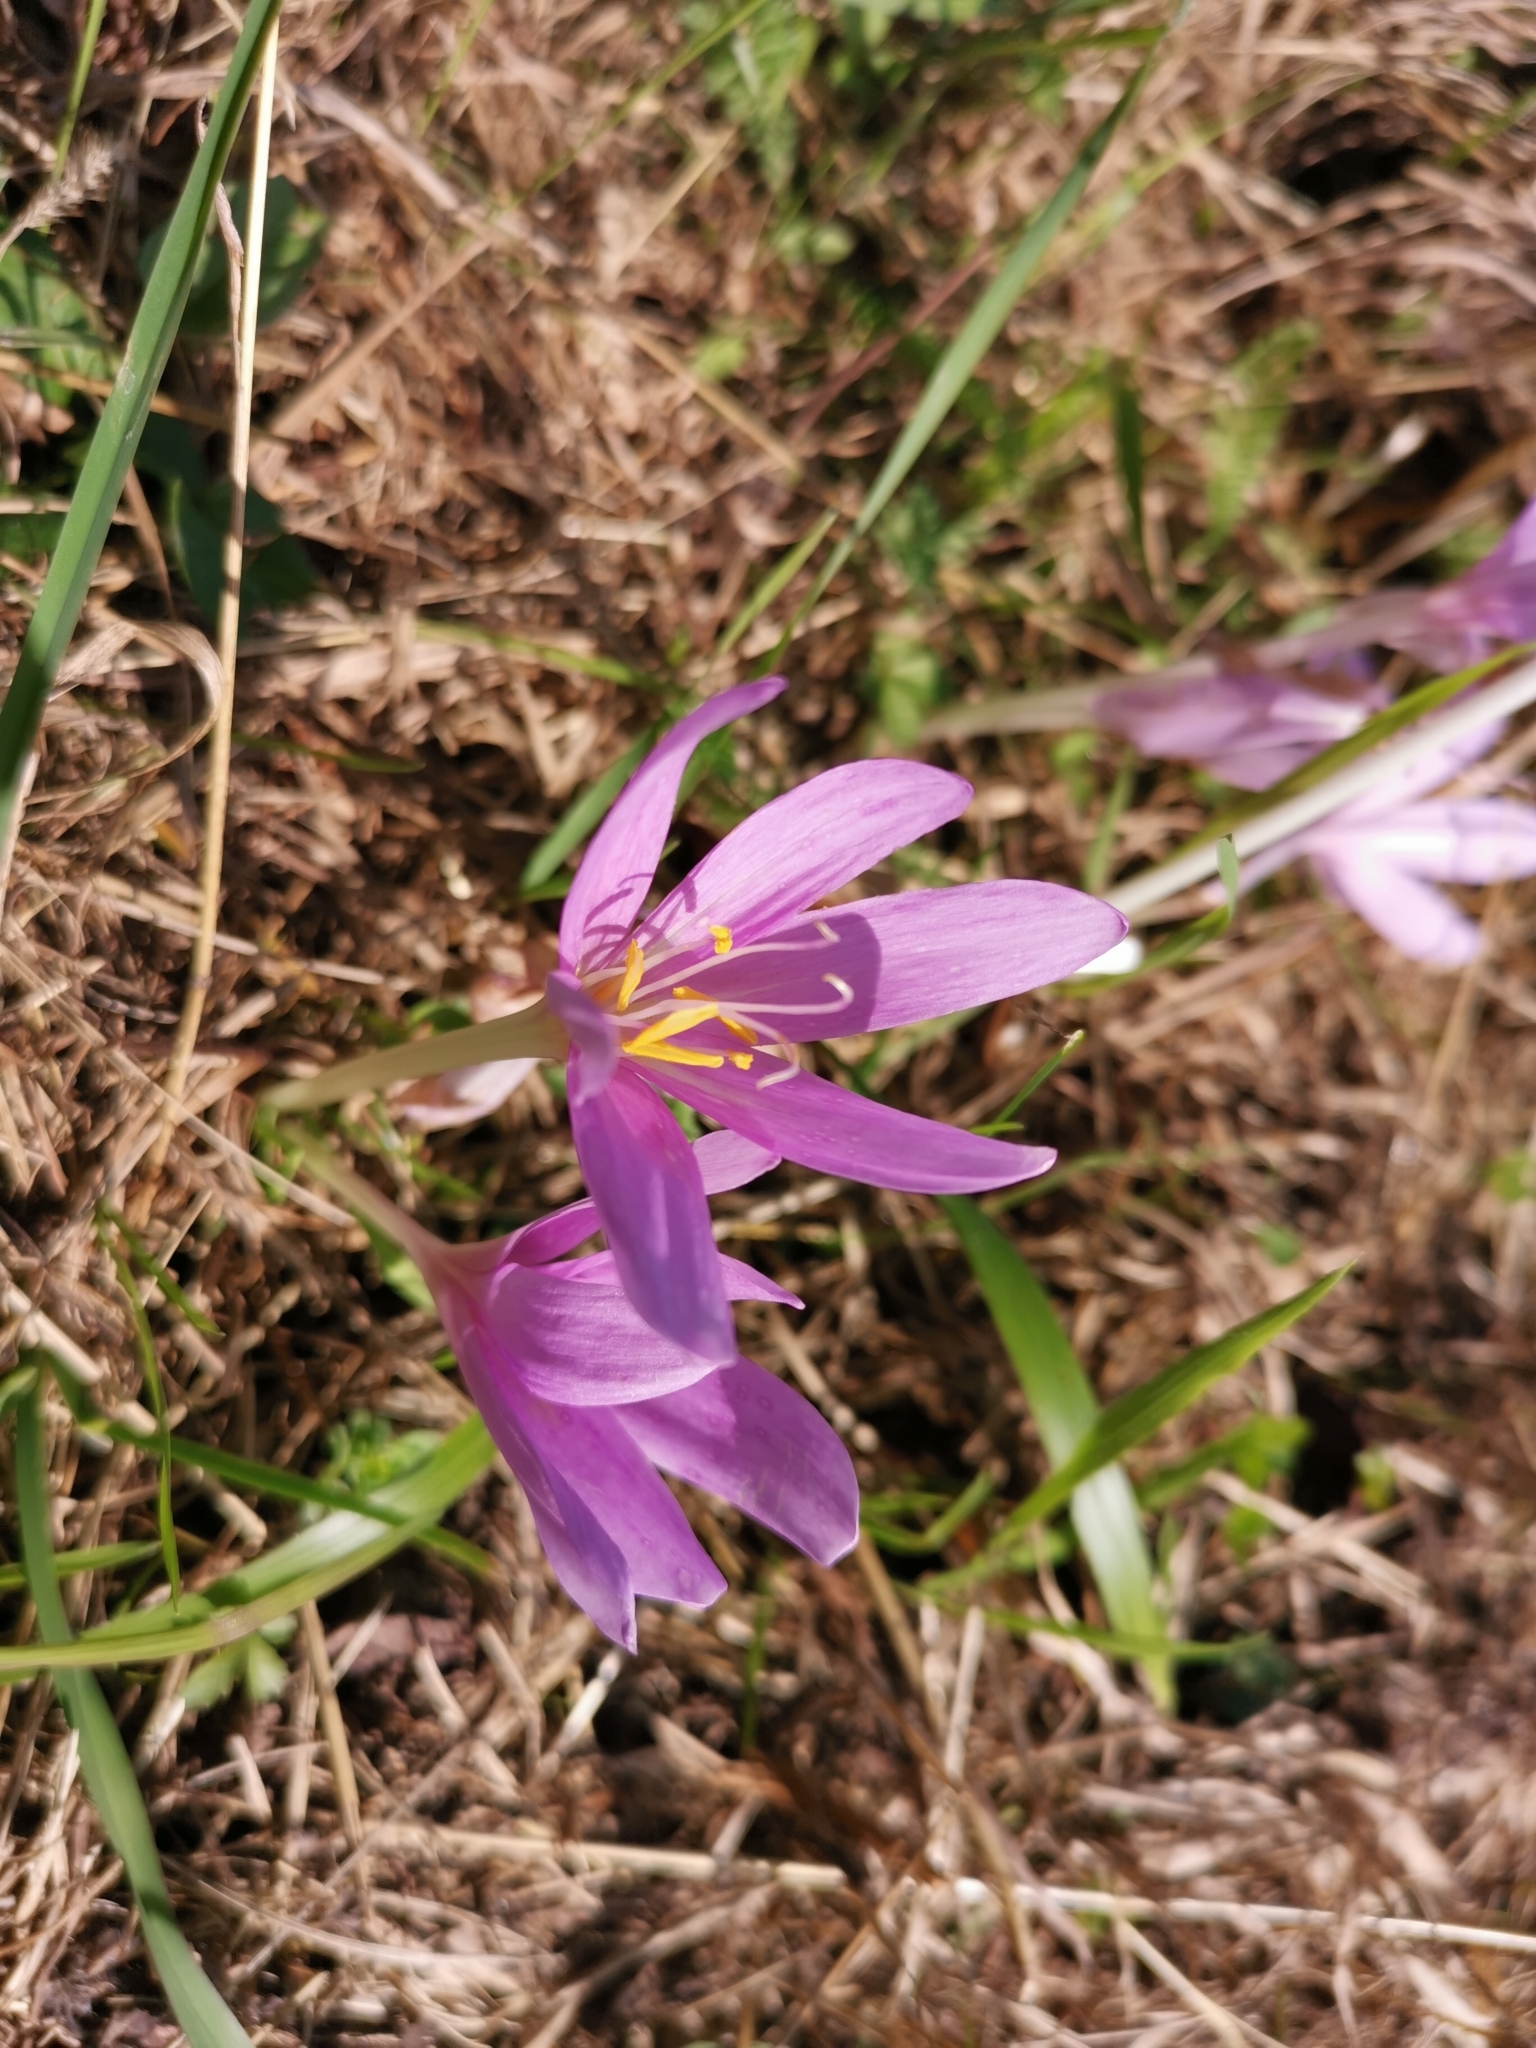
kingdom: Plantae
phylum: Tracheophyta
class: Liliopsida
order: Liliales
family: Colchicaceae
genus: Colchicum
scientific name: Colchicum autumnale
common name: Autumn crocus
